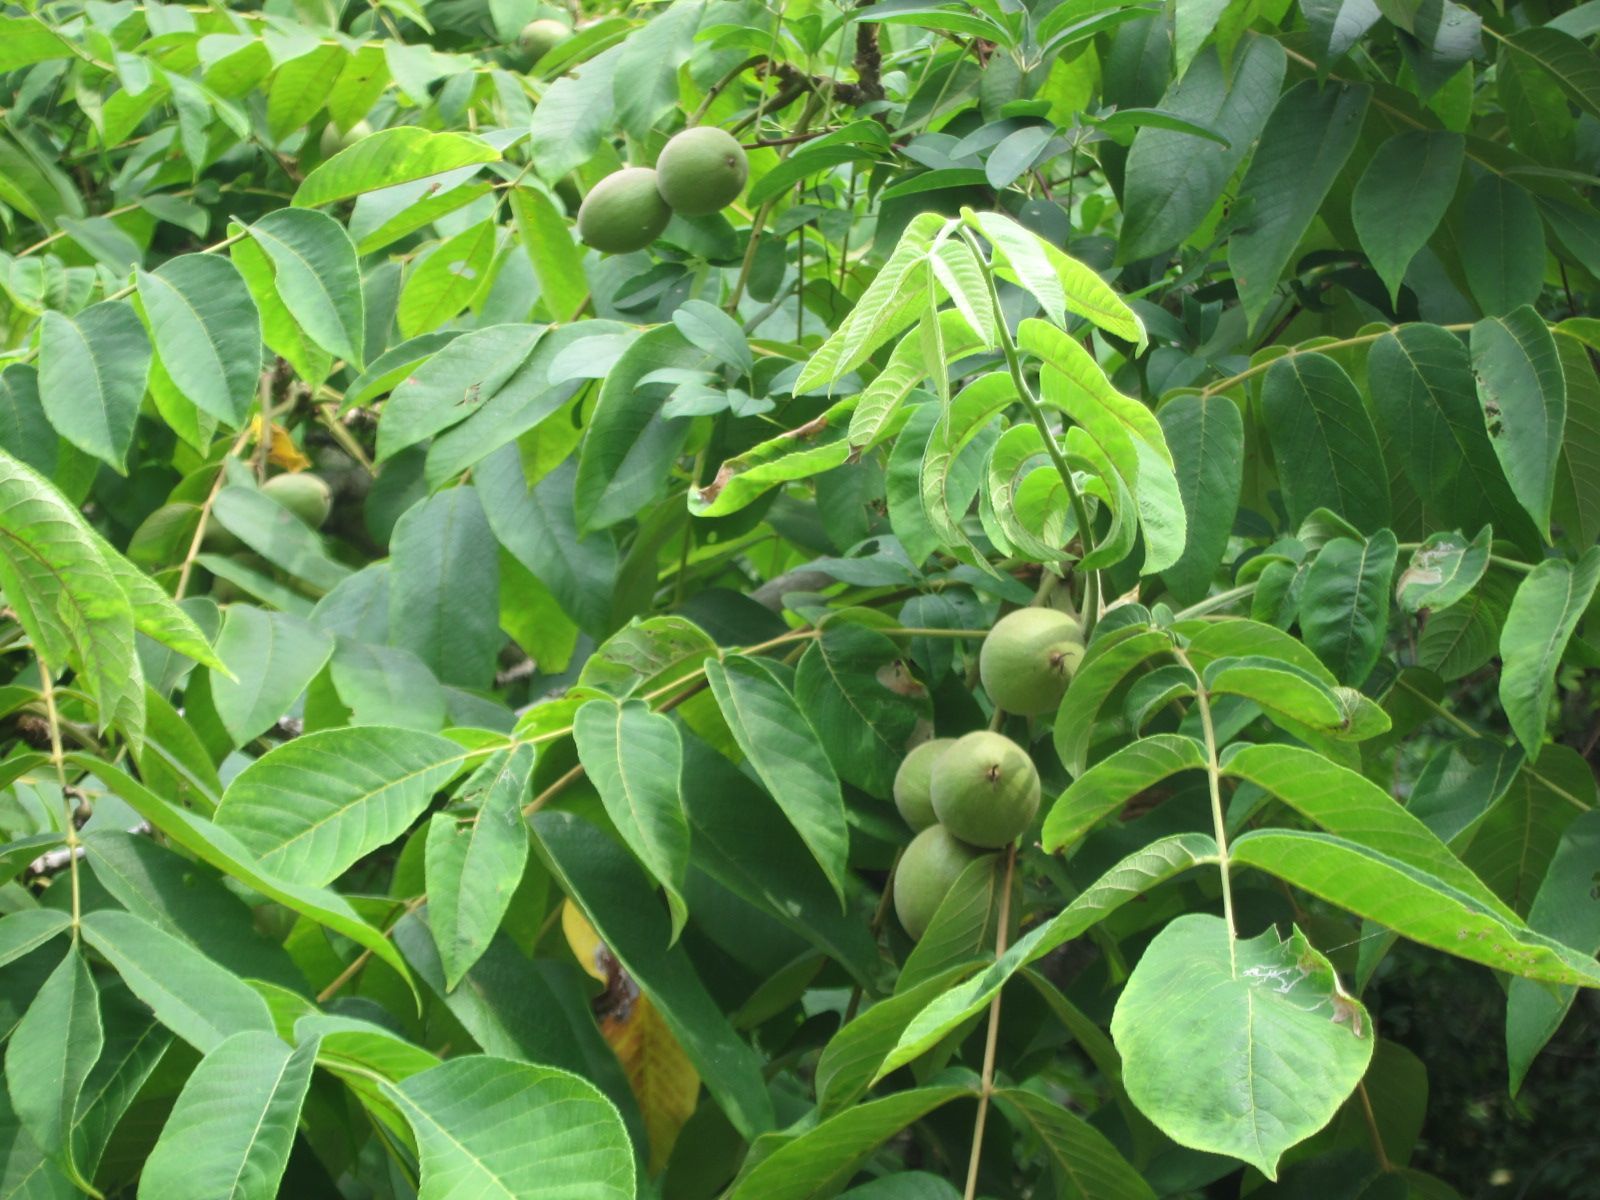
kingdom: Plantae
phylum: Tracheophyta
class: Magnoliopsida
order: Fagales
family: Juglandaceae
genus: Juglans
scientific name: Juglans ailantifolia
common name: Japanese walnut
